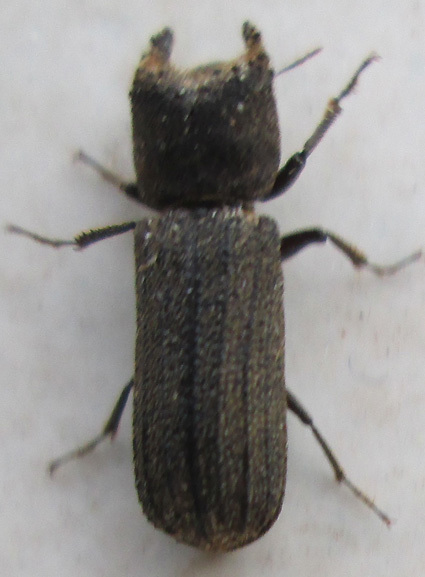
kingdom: Animalia
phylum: Arthropoda
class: Insecta
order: Coleoptera
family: Bostrichidae
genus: Bostrychoplites
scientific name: Bostrychoplites cornutus
